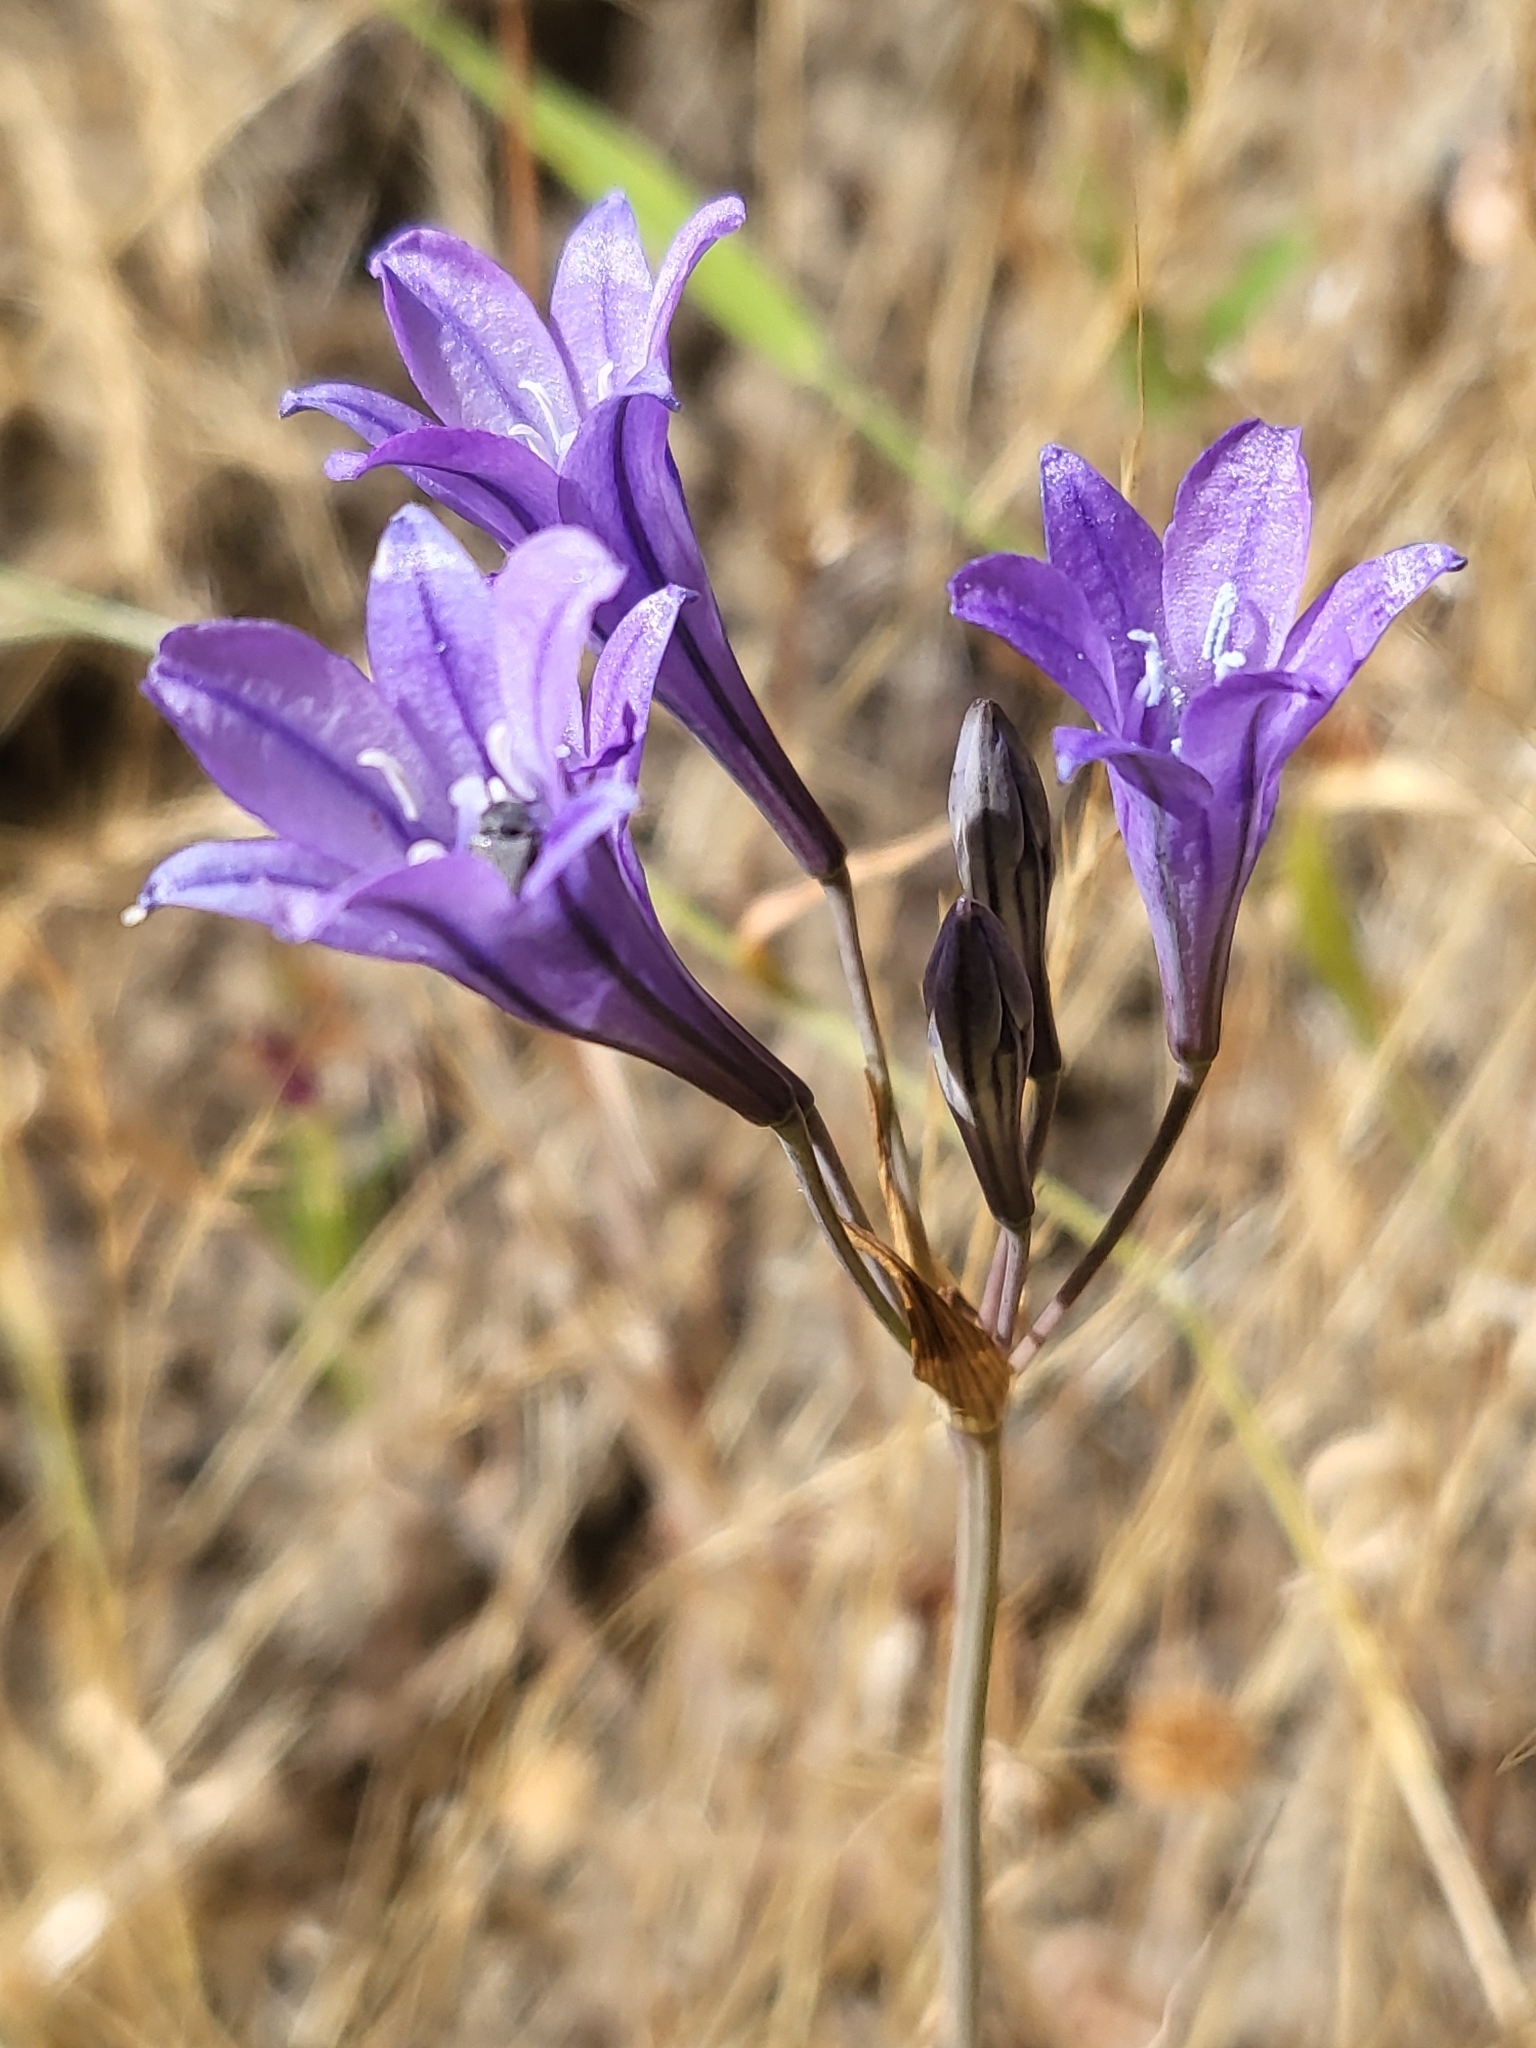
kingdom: Plantae
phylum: Tracheophyta
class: Liliopsida
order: Asparagales
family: Asparagaceae
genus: Triteleia
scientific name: Triteleia laxa
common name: Triplet-lily
